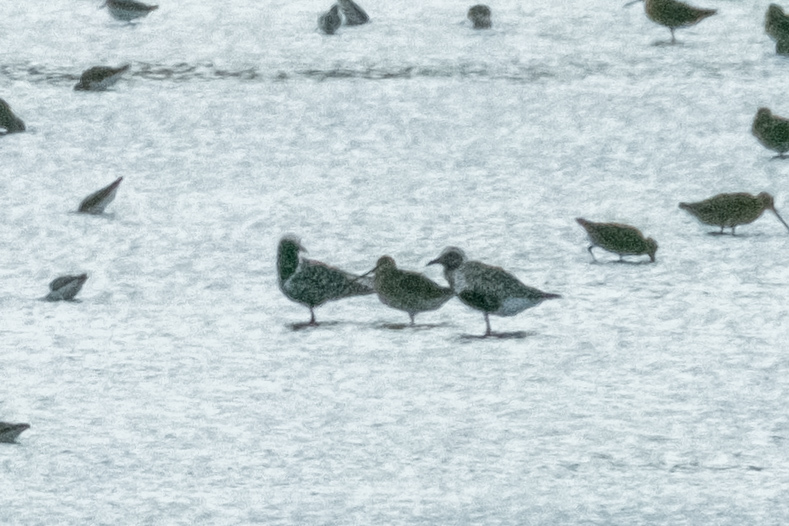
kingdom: Animalia
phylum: Chordata
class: Aves
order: Charadriiformes
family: Charadriidae
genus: Pluvialis
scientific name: Pluvialis squatarola
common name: Grey plover
